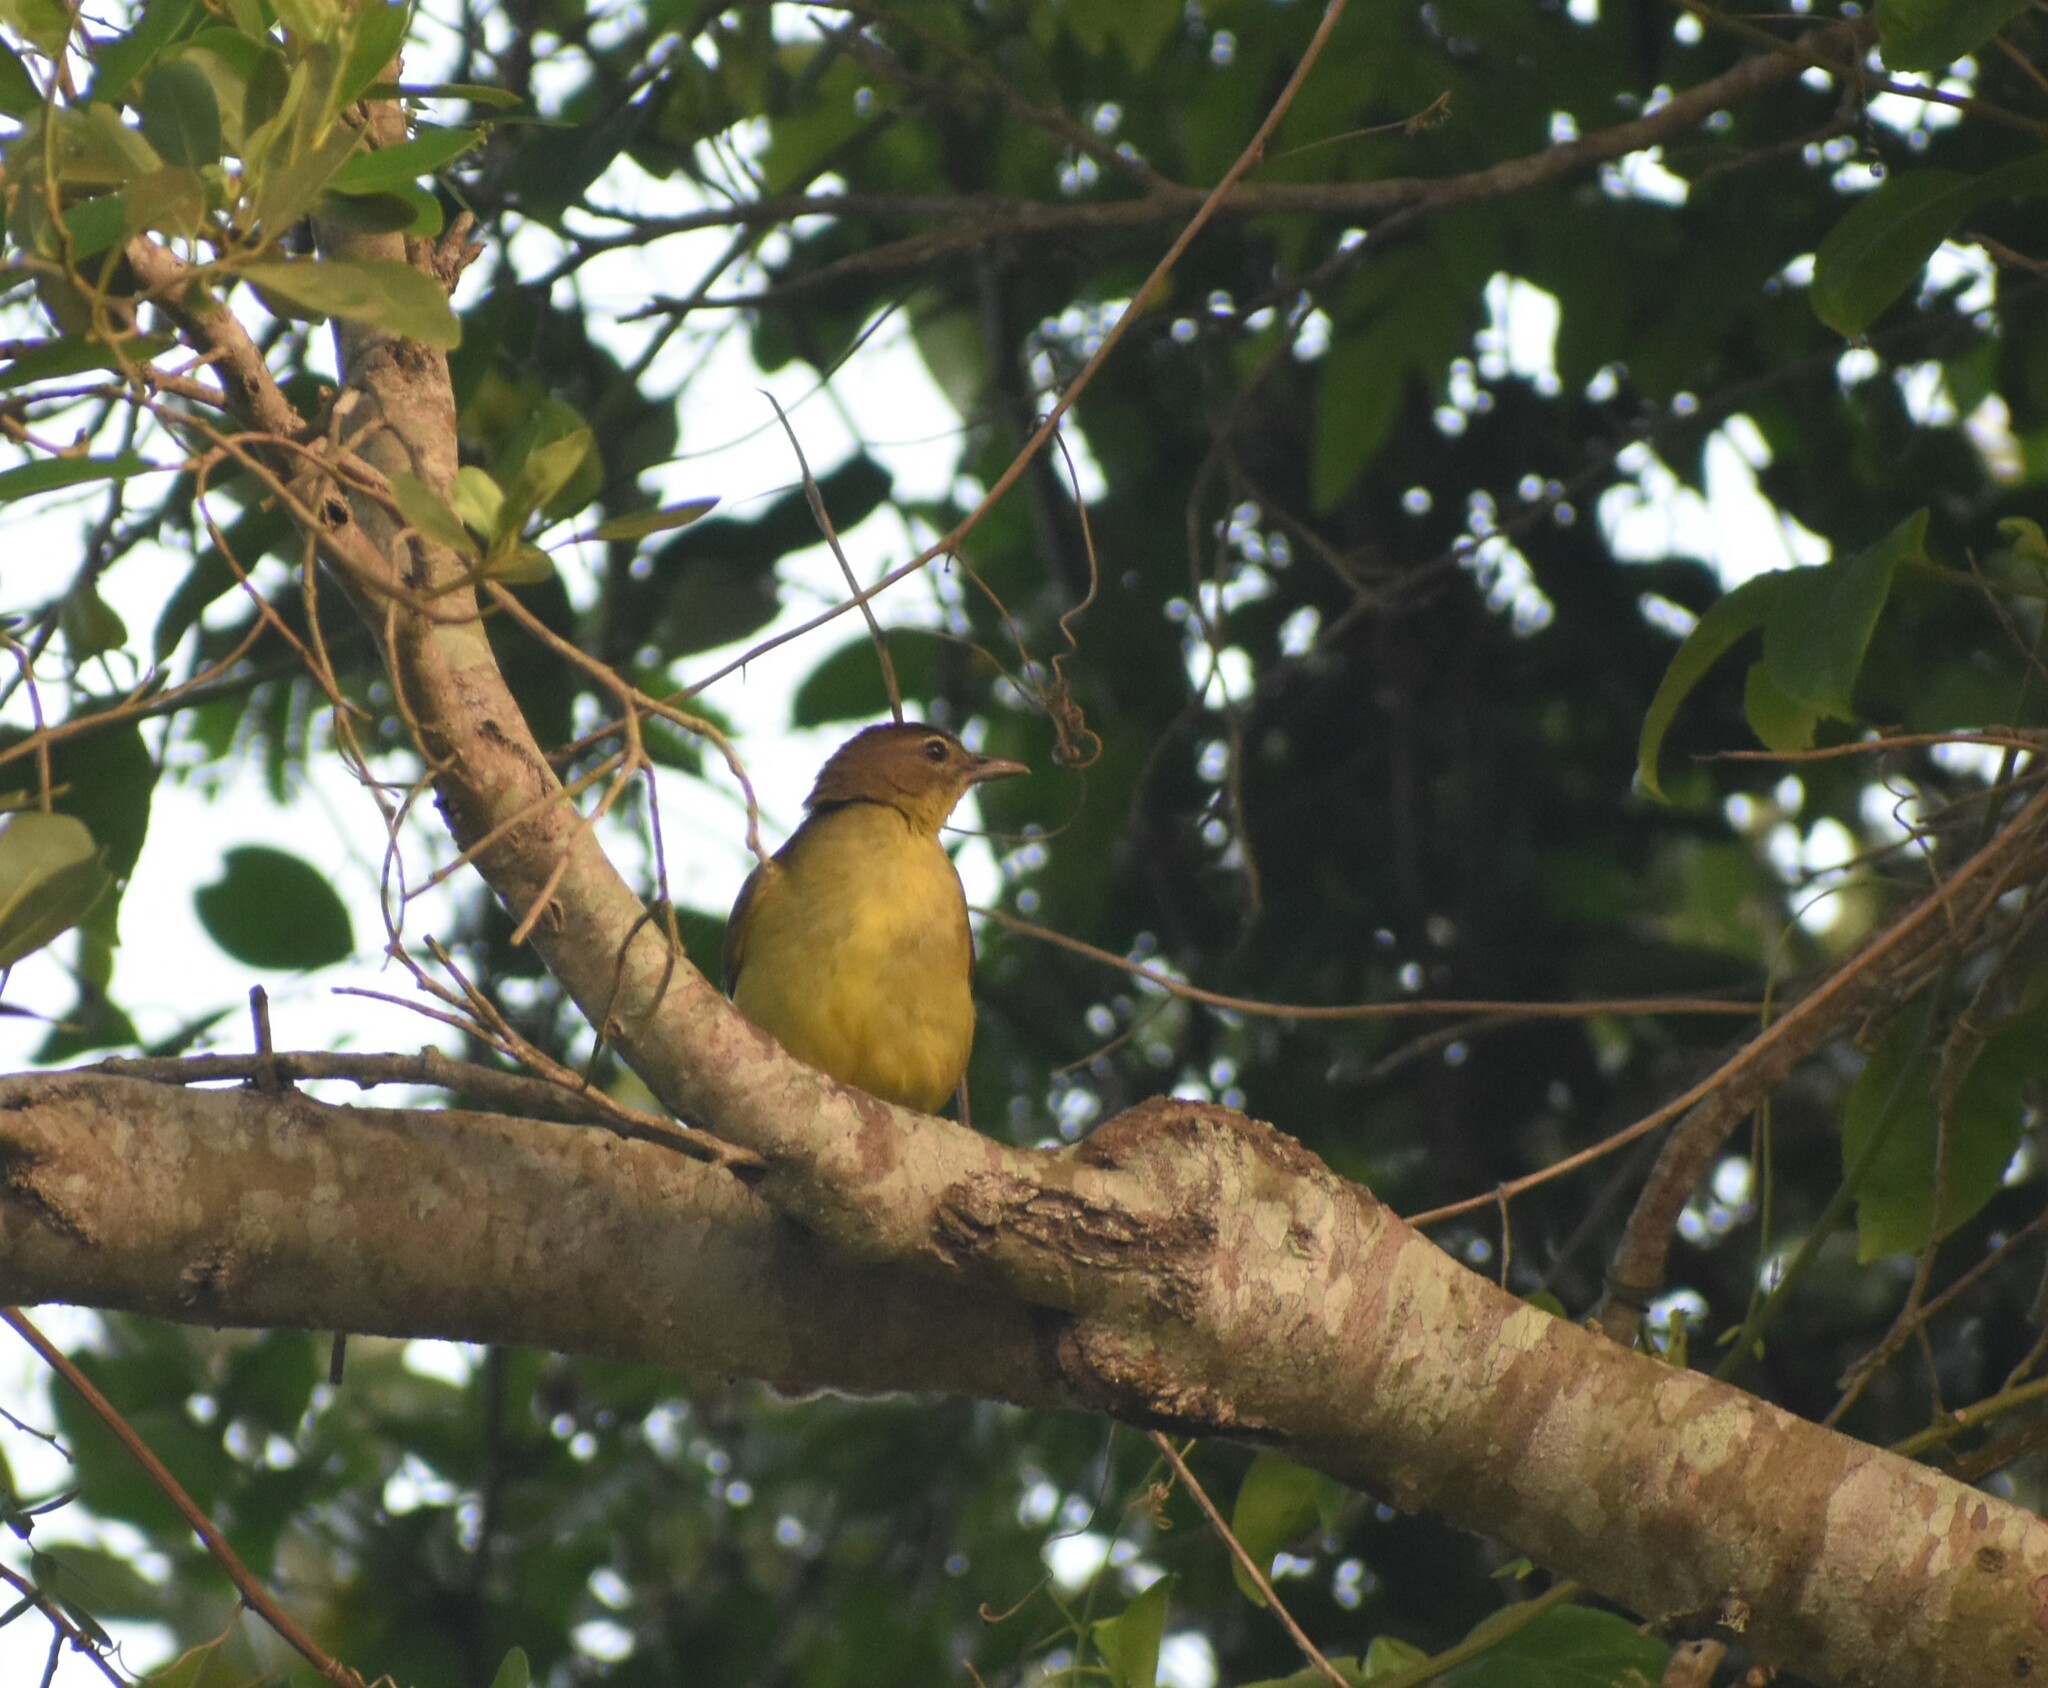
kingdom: Animalia
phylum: Chordata
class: Aves
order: Passeriformes
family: Pycnonotidae
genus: Chlorocichla
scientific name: Chlorocichla flaviventris
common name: Yellow-bellied greenbul
